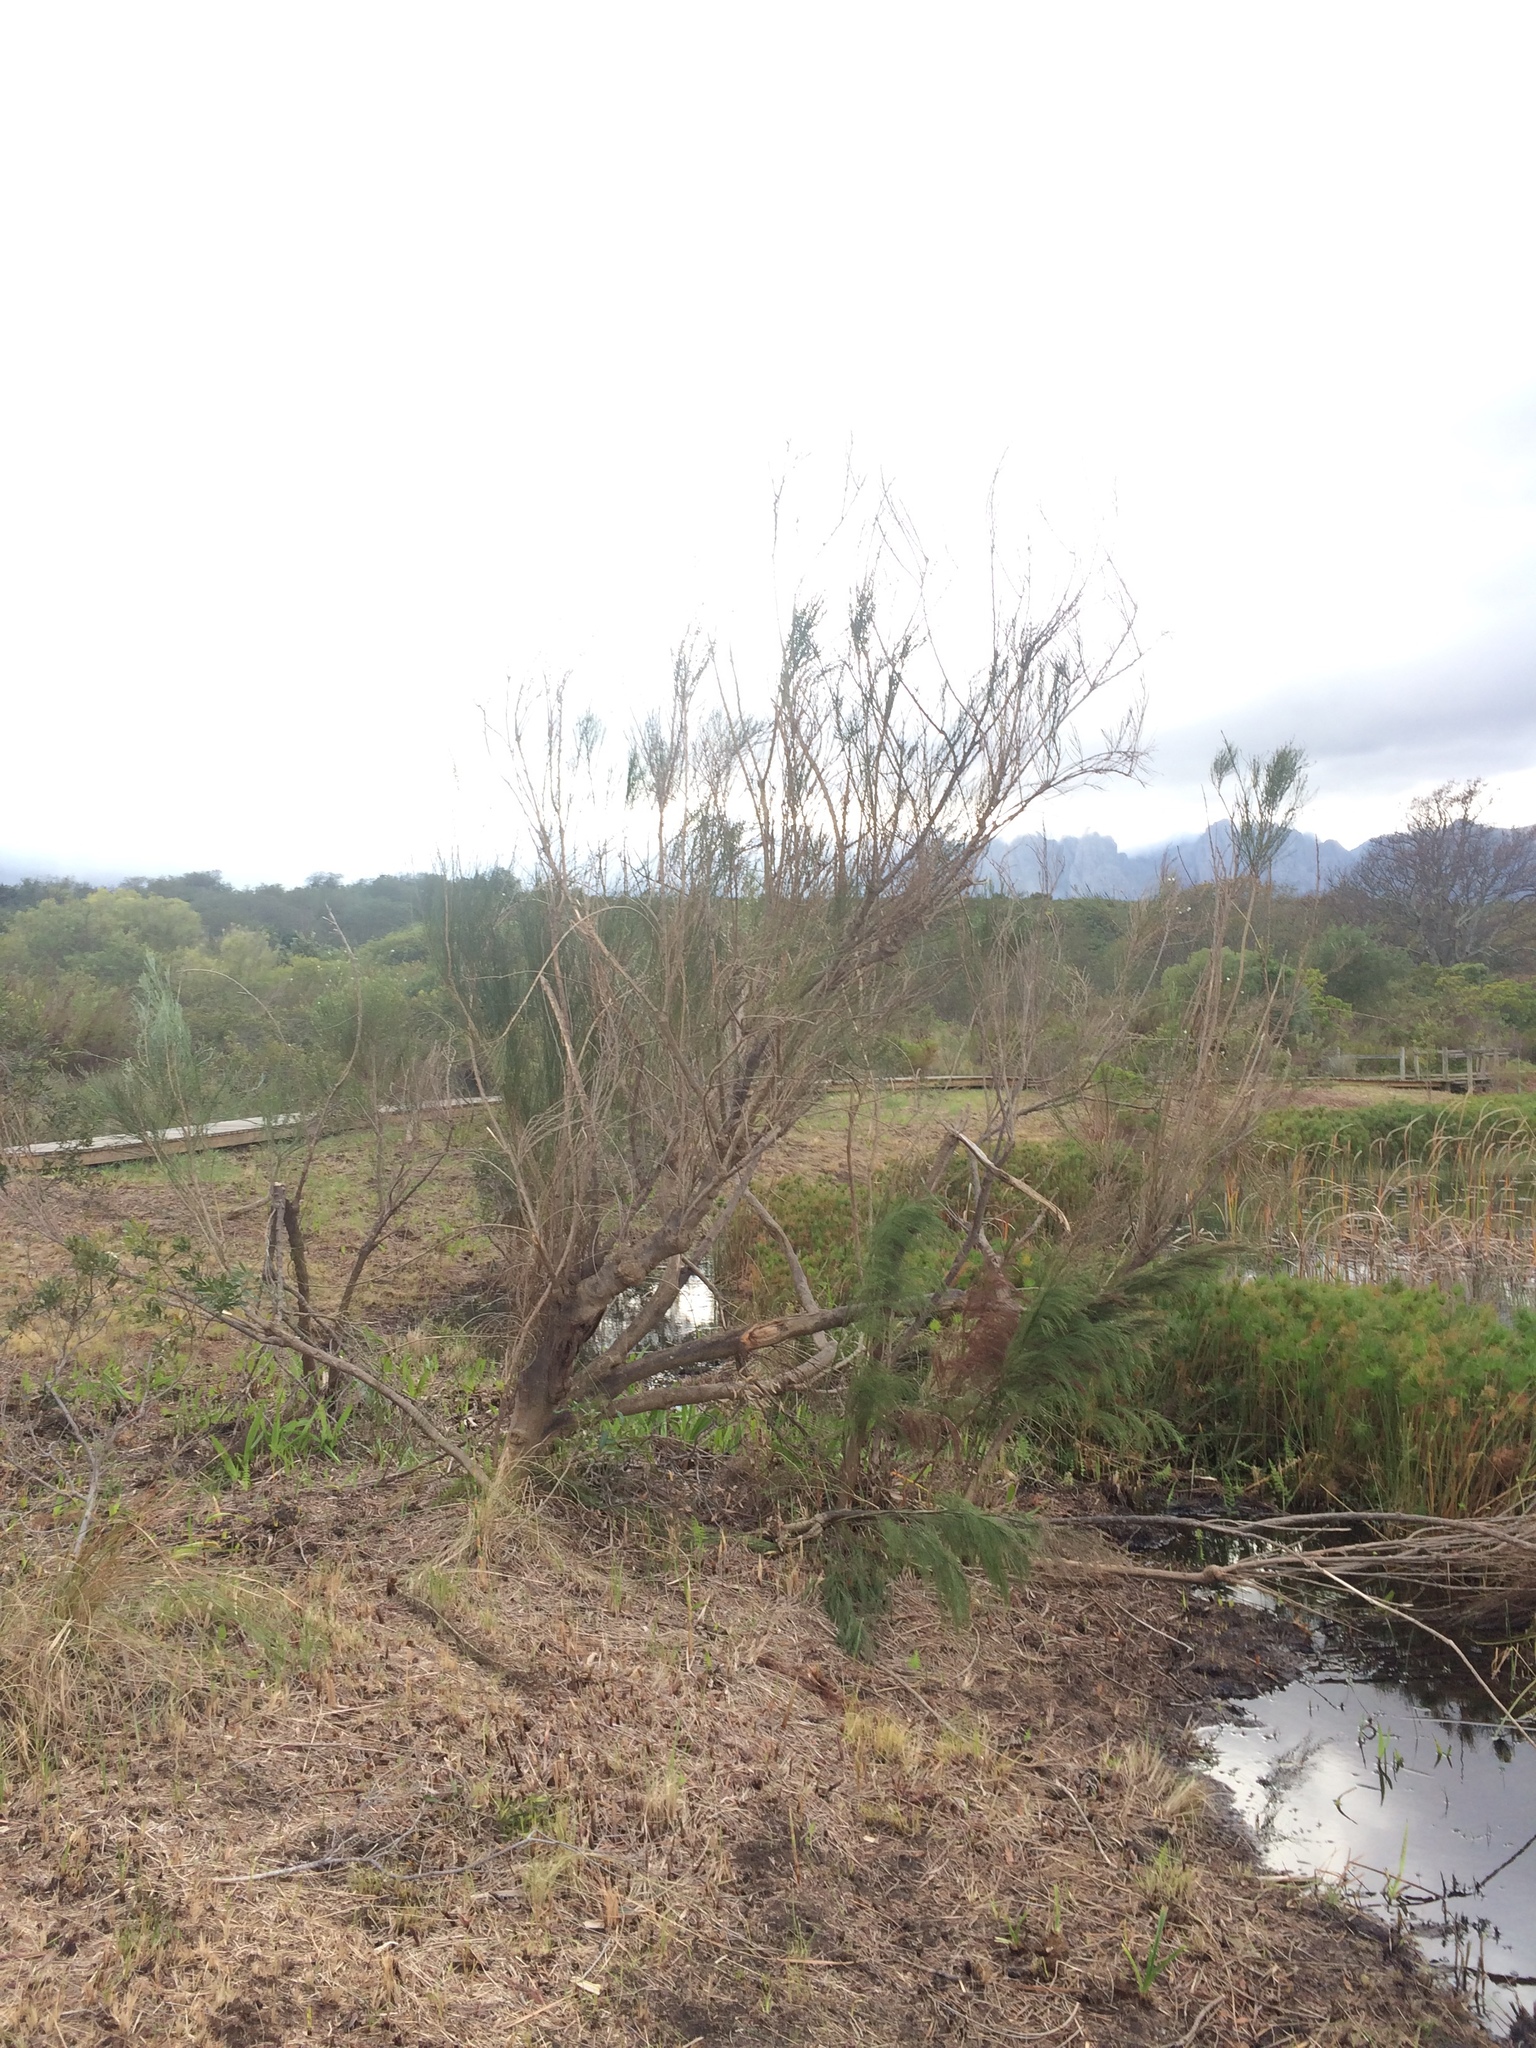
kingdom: Plantae
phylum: Tracheophyta
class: Magnoliopsida
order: Fabales
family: Fabaceae
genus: Psoralea
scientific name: Psoralea aphylla
